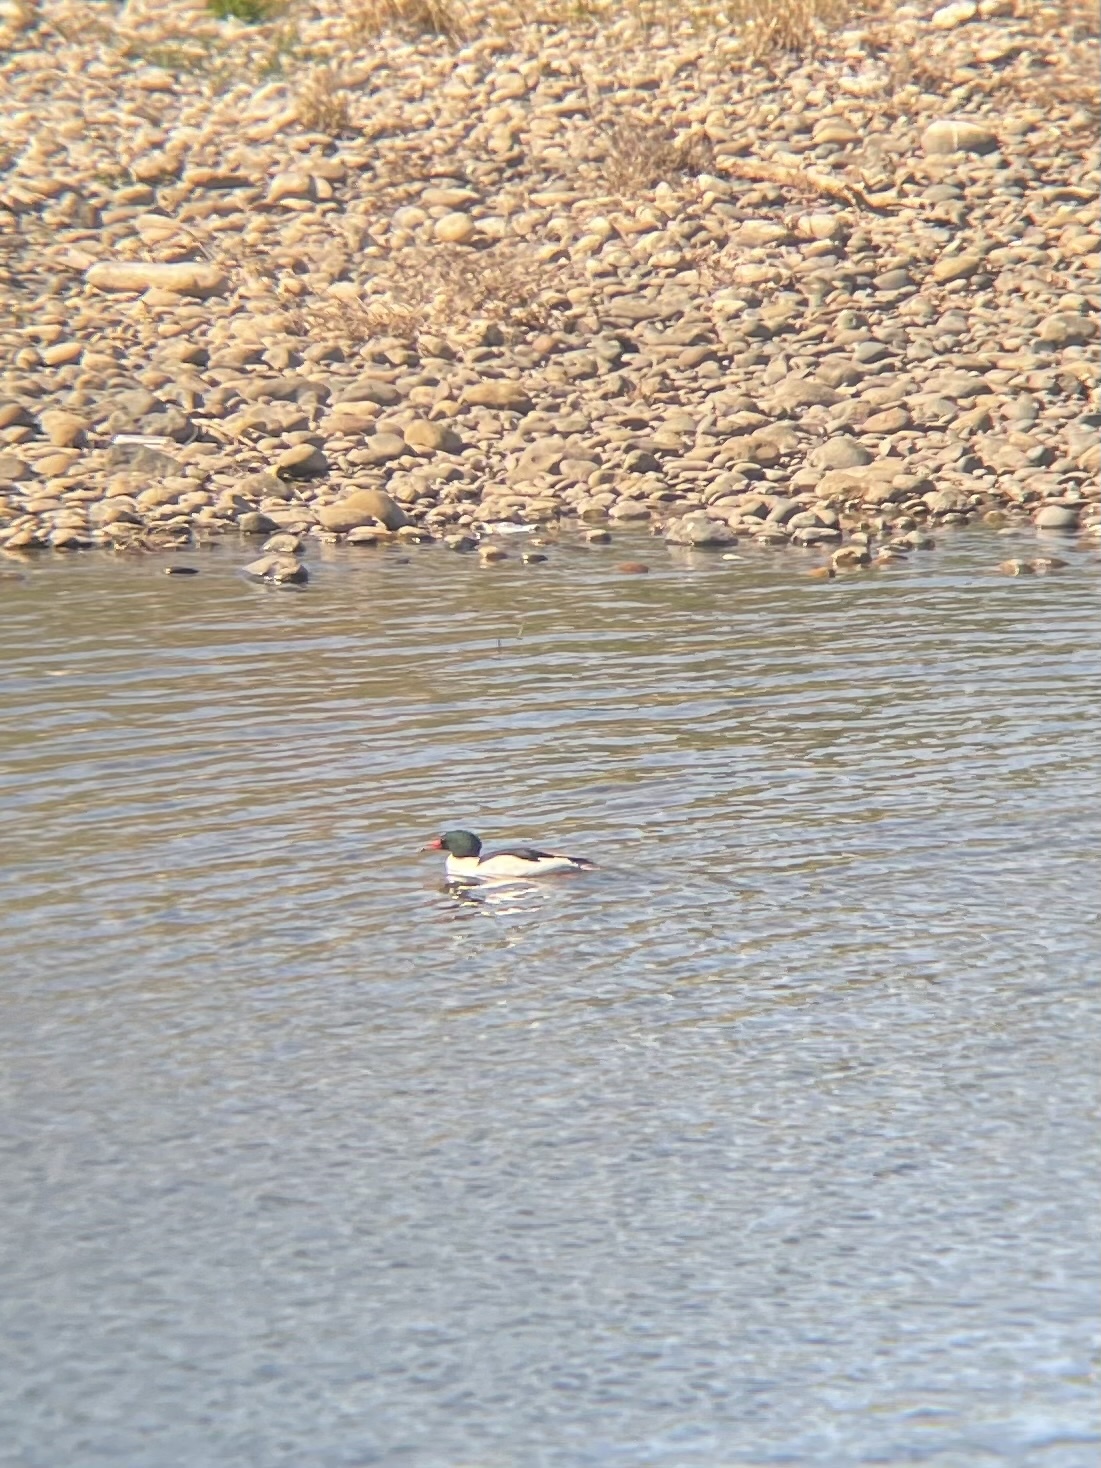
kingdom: Animalia
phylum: Chordata
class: Aves
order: Anseriformes
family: Anatidae
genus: Mergus
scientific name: Mergus merganser
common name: Common merganser
